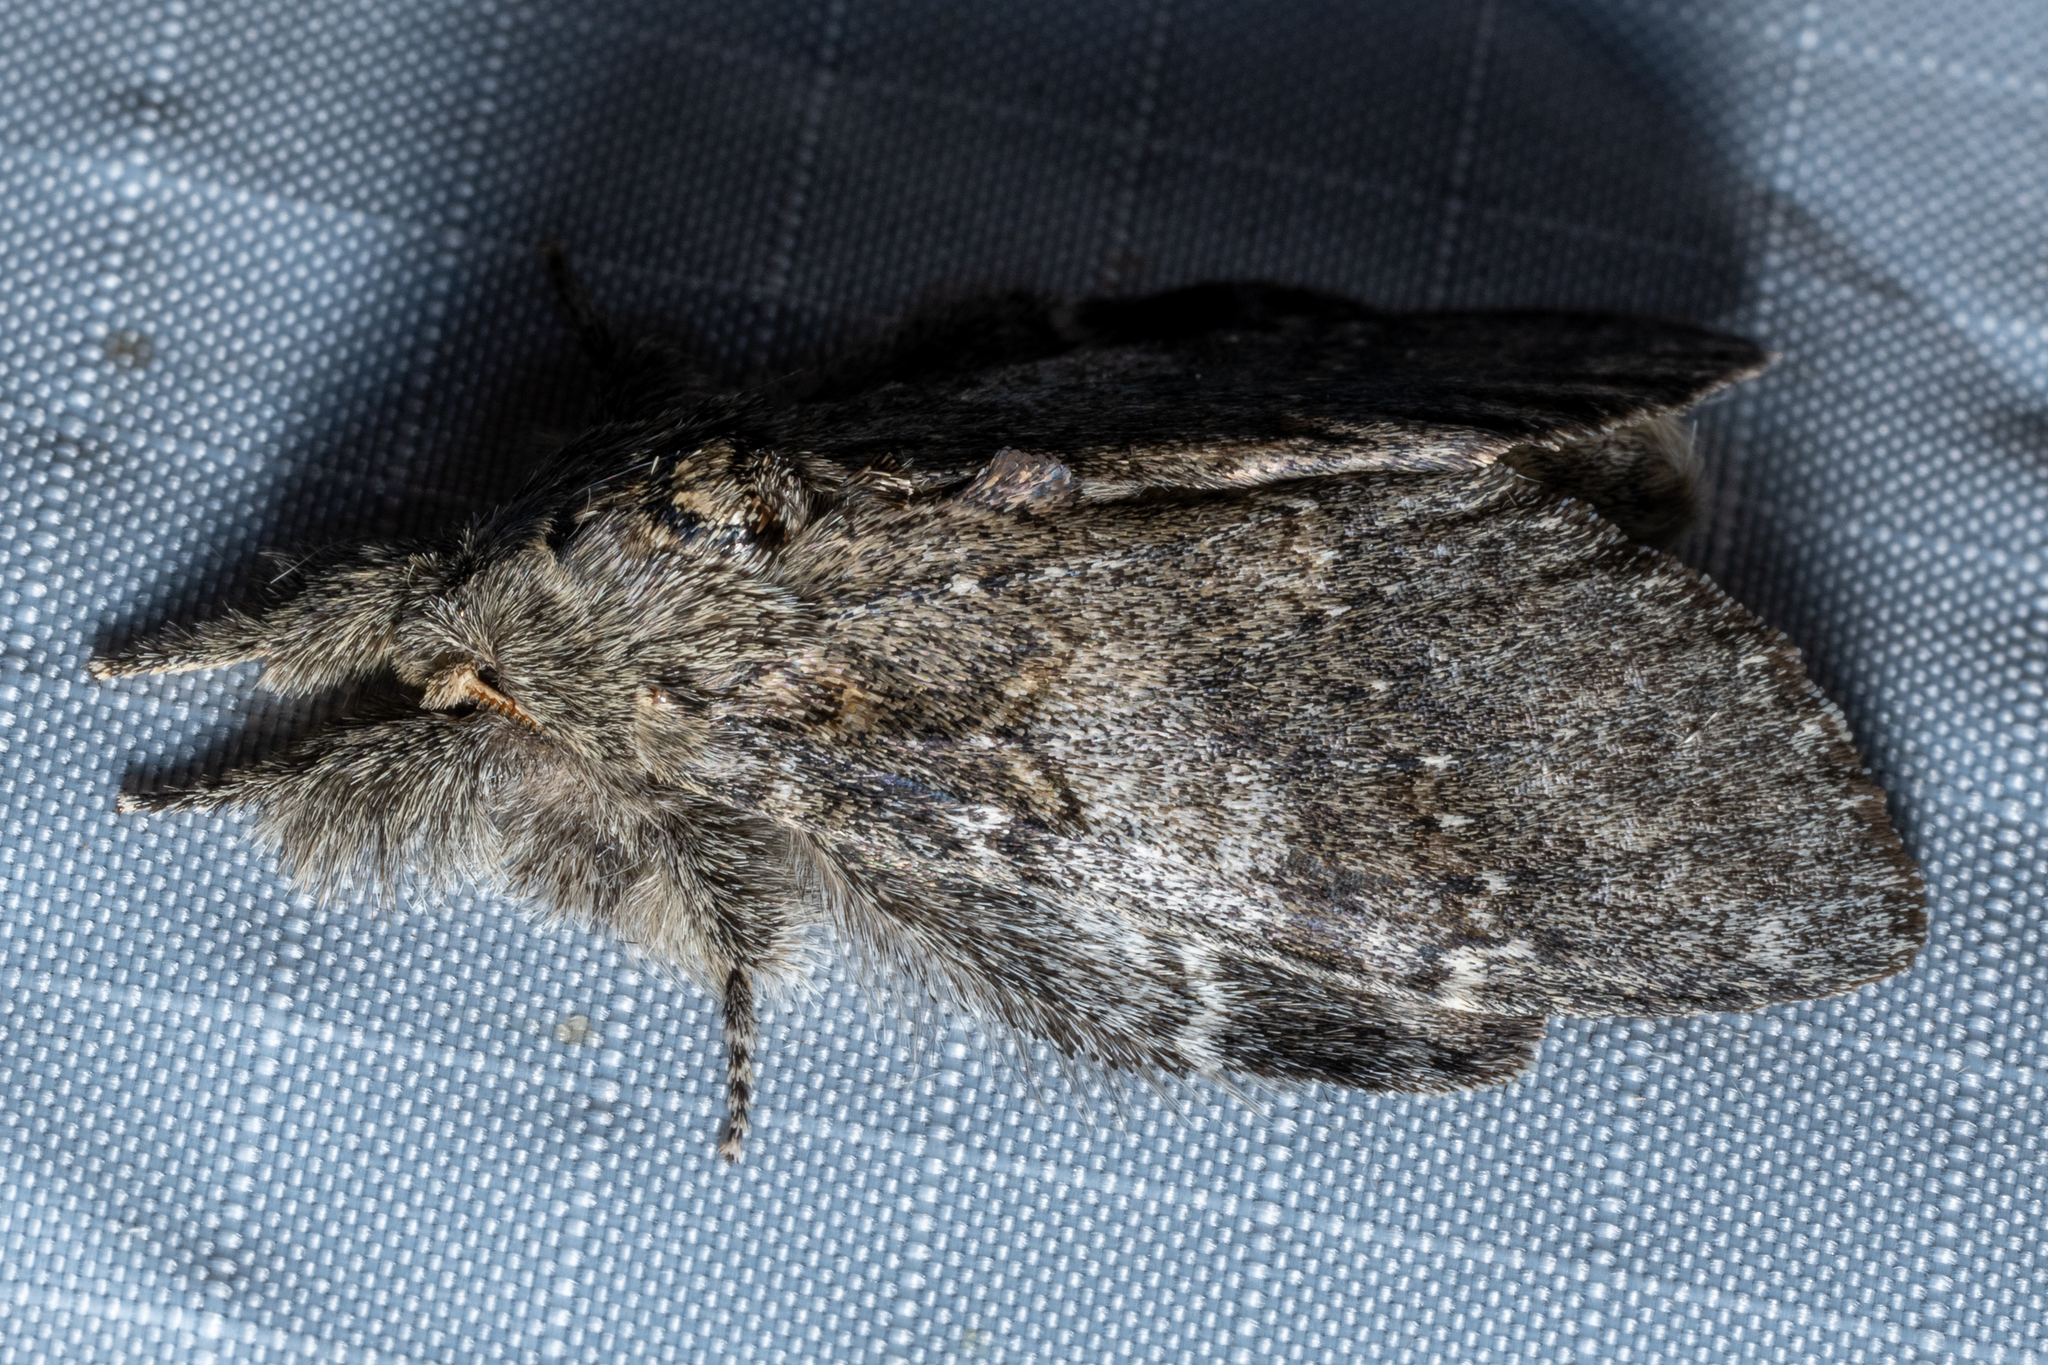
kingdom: Animalia
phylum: Arthropoda
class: Insecta
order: Lepidoptera
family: Notodontidae
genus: Peridea
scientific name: Peridea angulosa
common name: Angulose prominent
